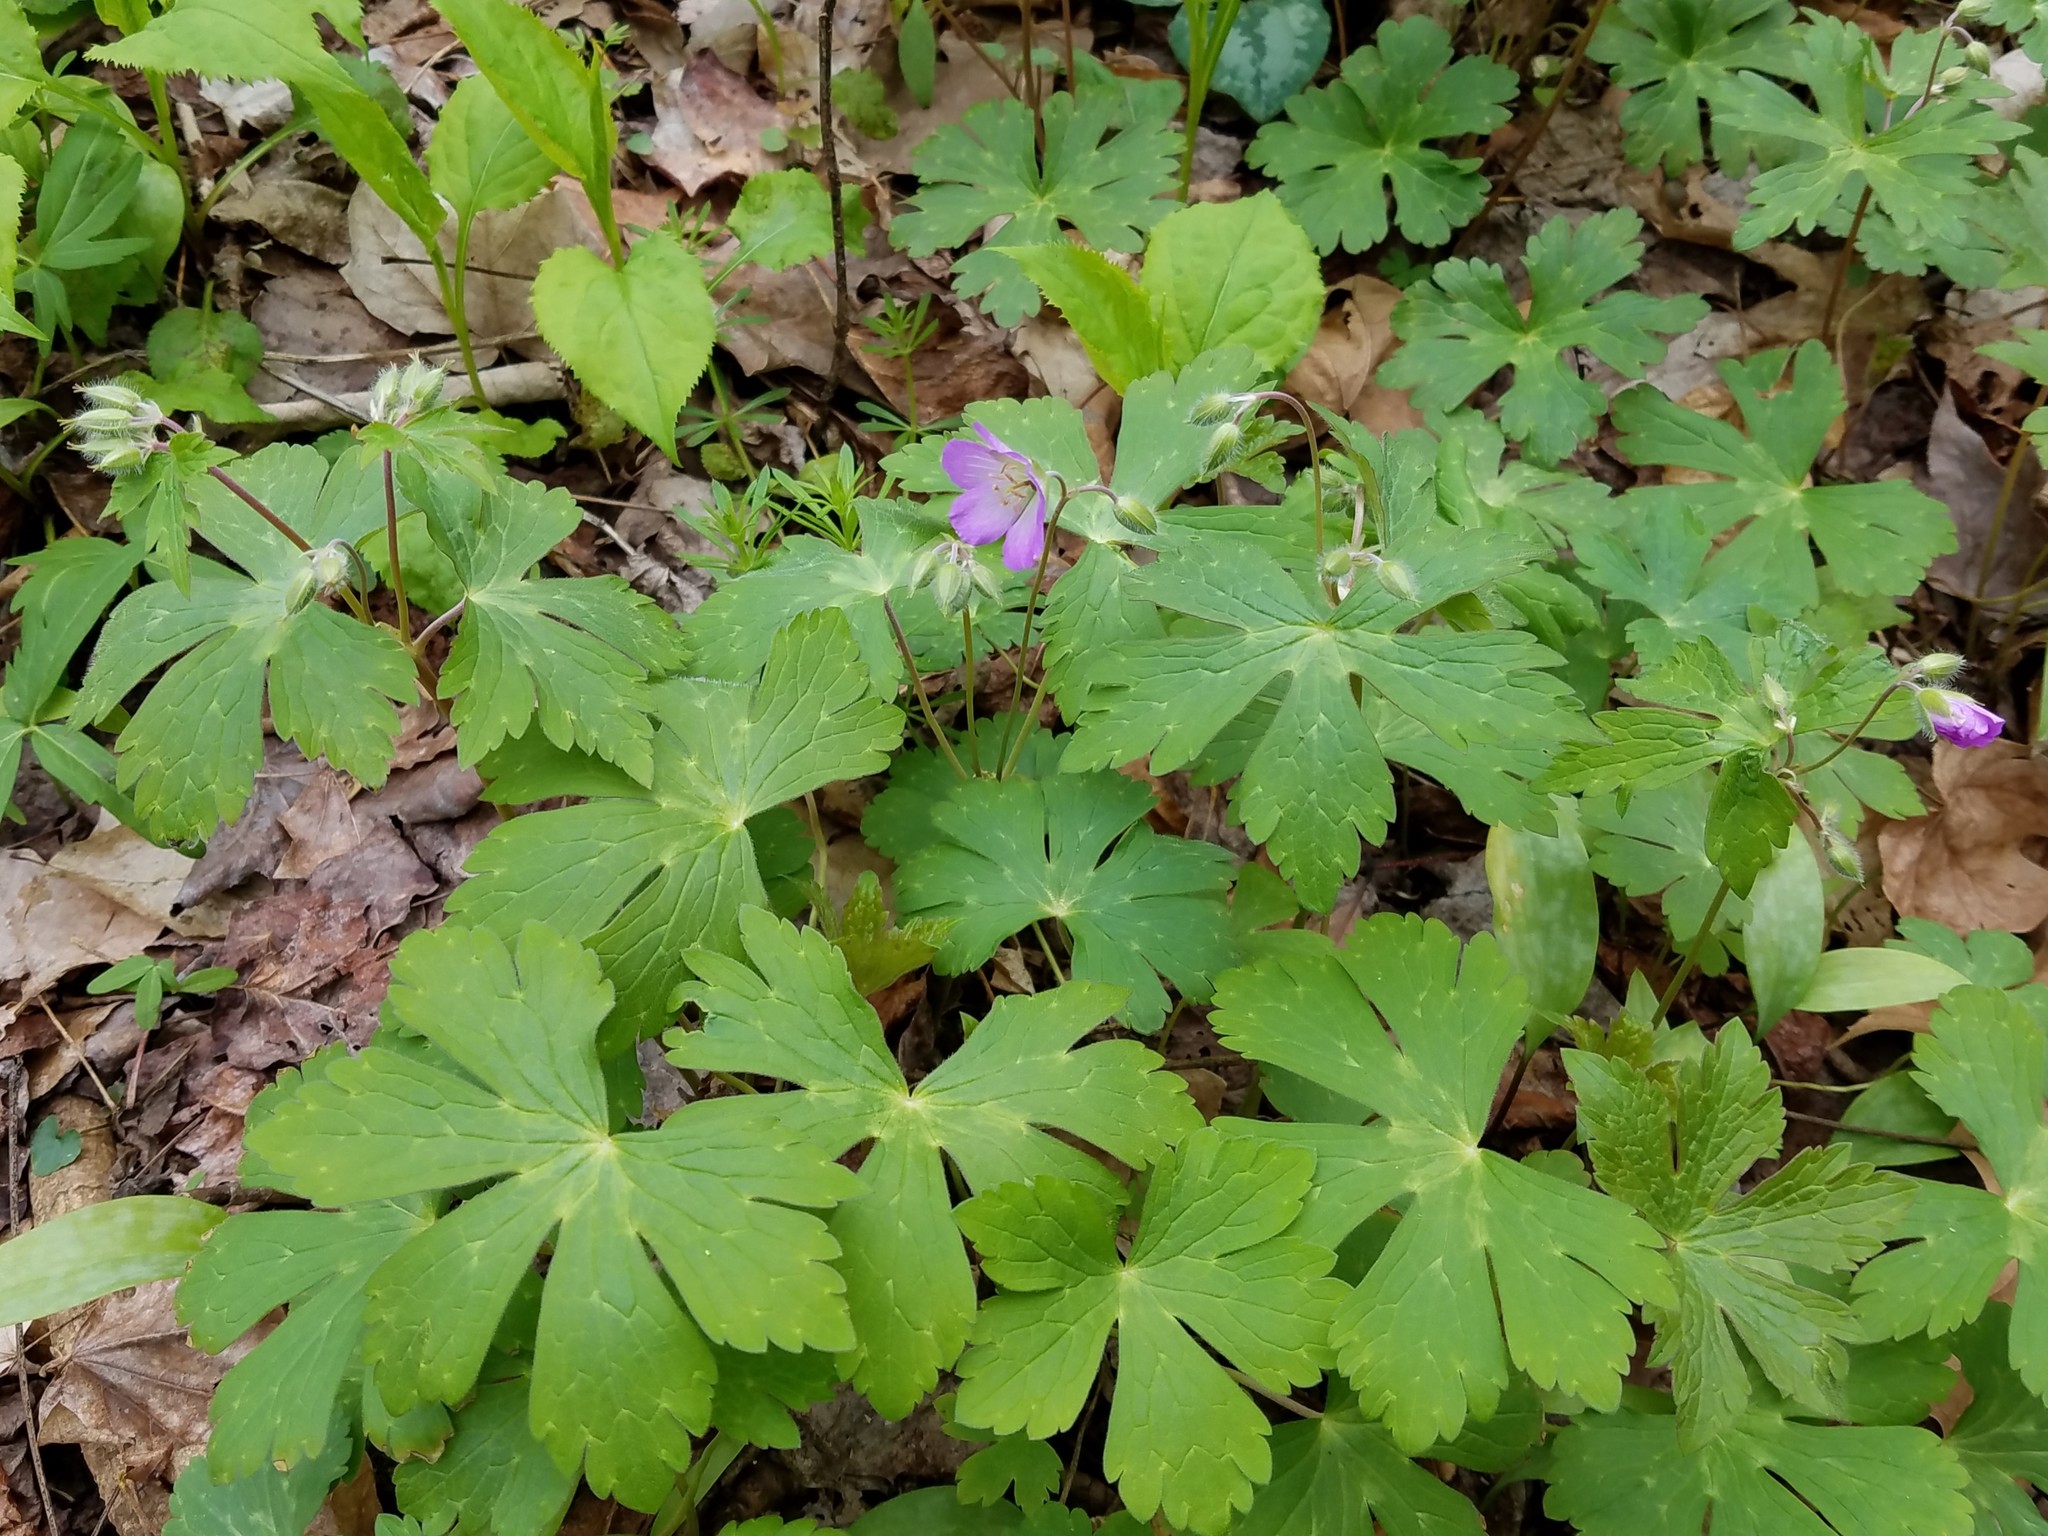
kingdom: Plantae
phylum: Tracheophyta
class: Magnoliopsida
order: Geraniales
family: Geraniaceae
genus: Geranium
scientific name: Geranium maculatum
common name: Spotted geranium
